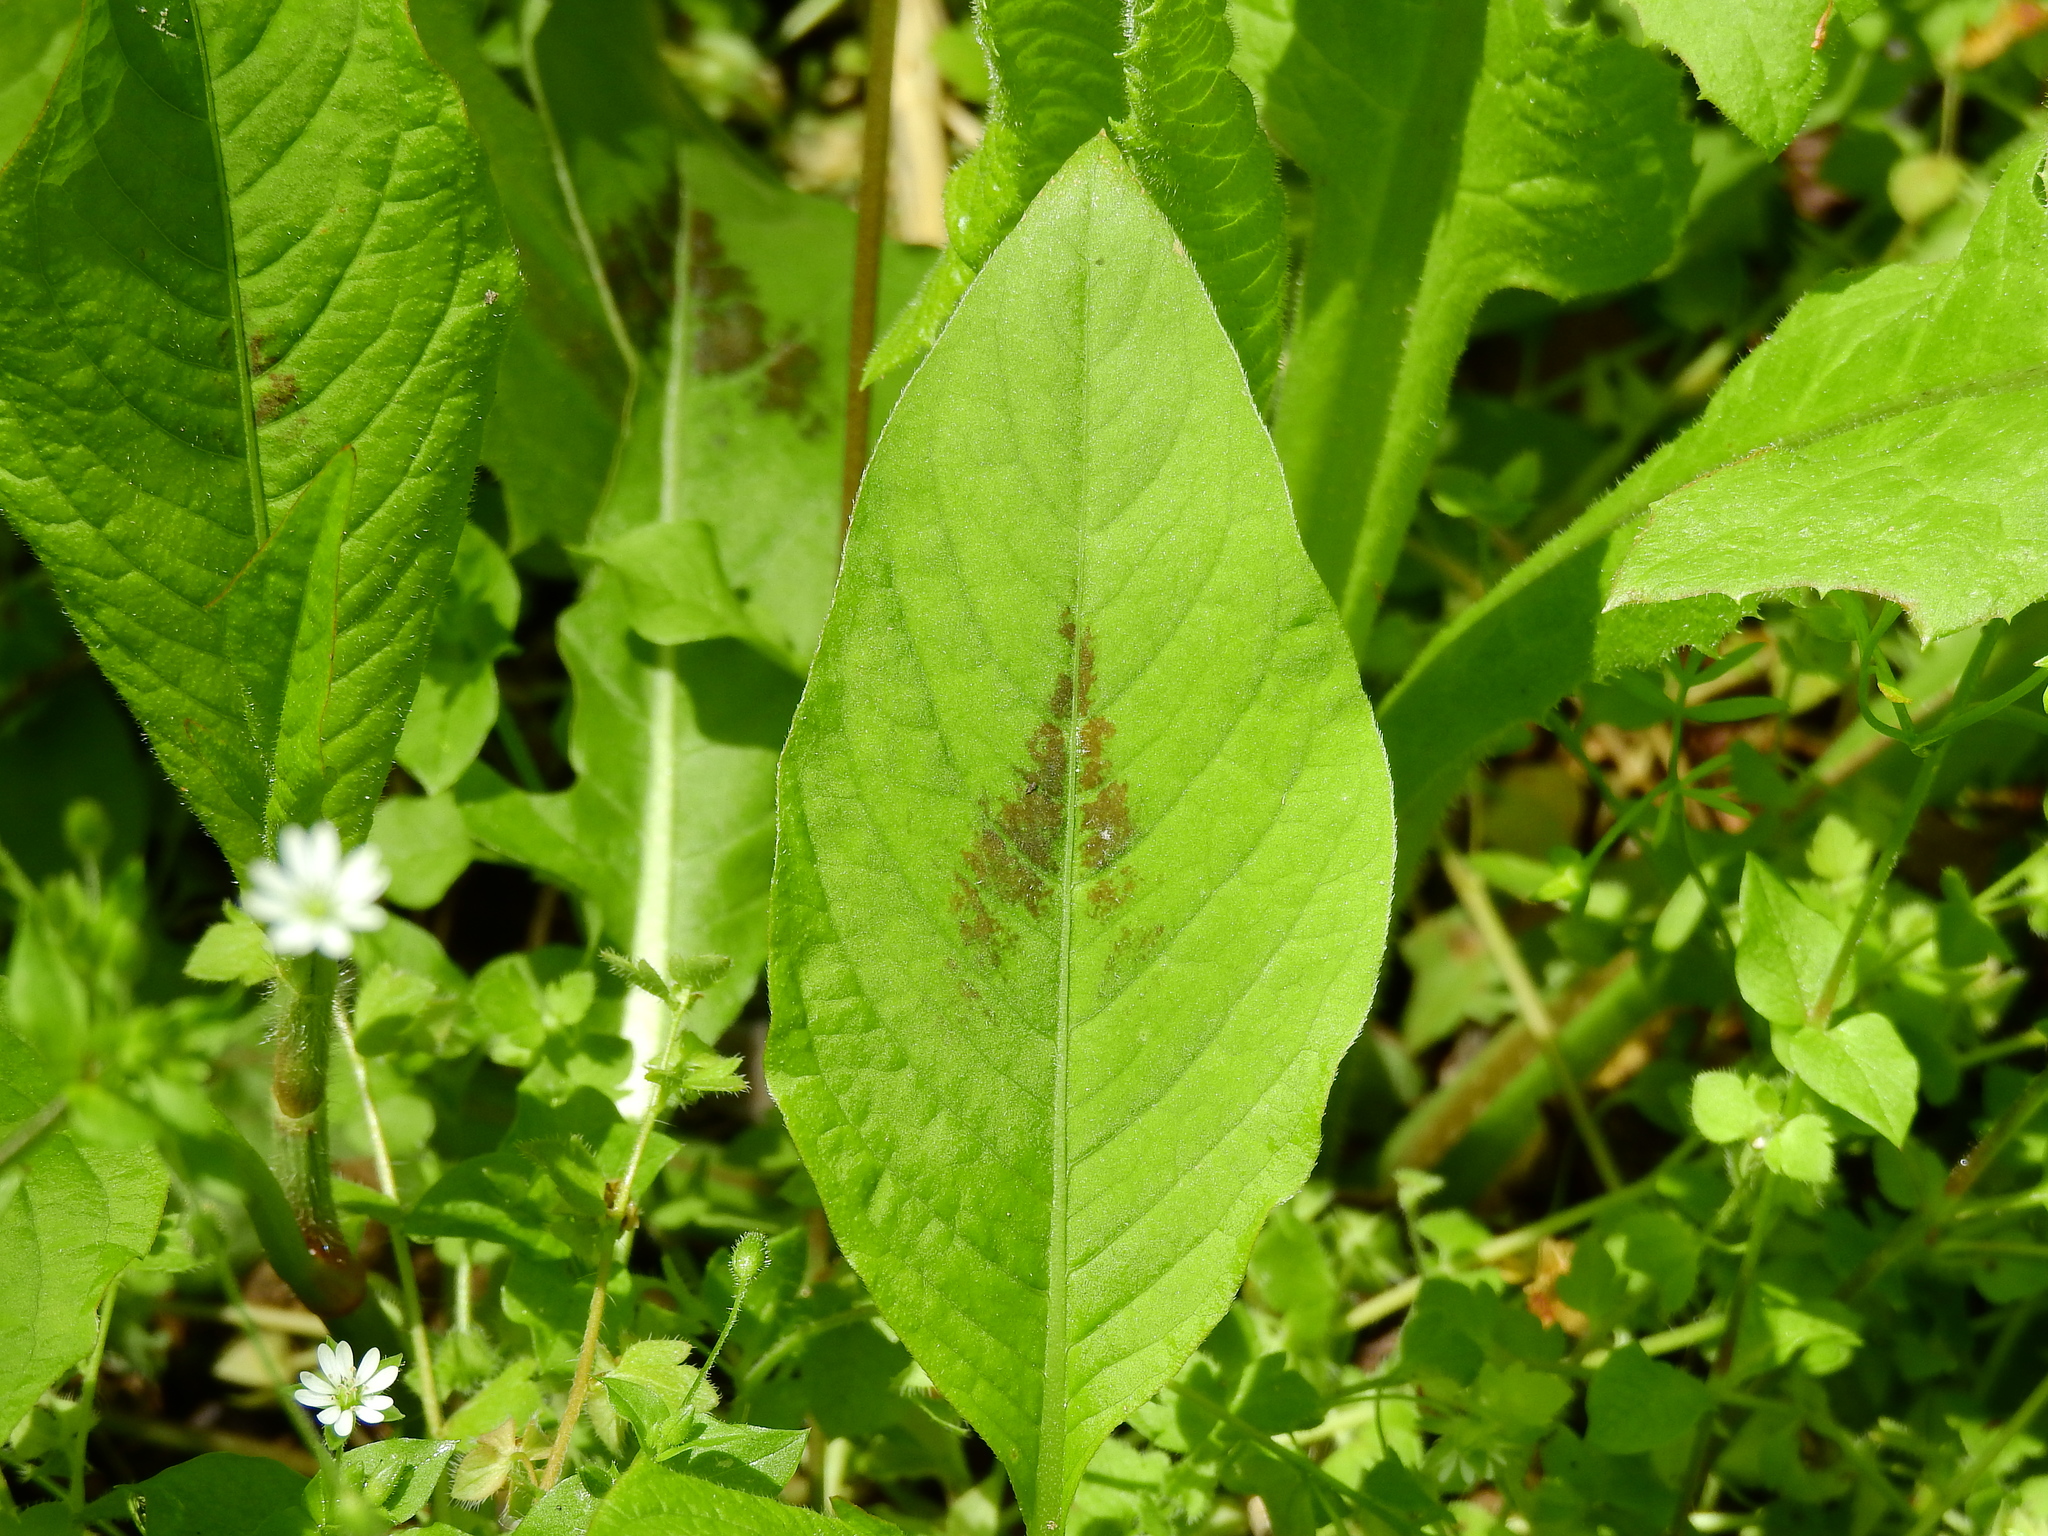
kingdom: Plantae
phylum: Tracheophyta
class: Magnoliopsida
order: Caryophyllales
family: Polygonaceae
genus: Persicaria
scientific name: Persicaria virginiana
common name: Jumpseed
